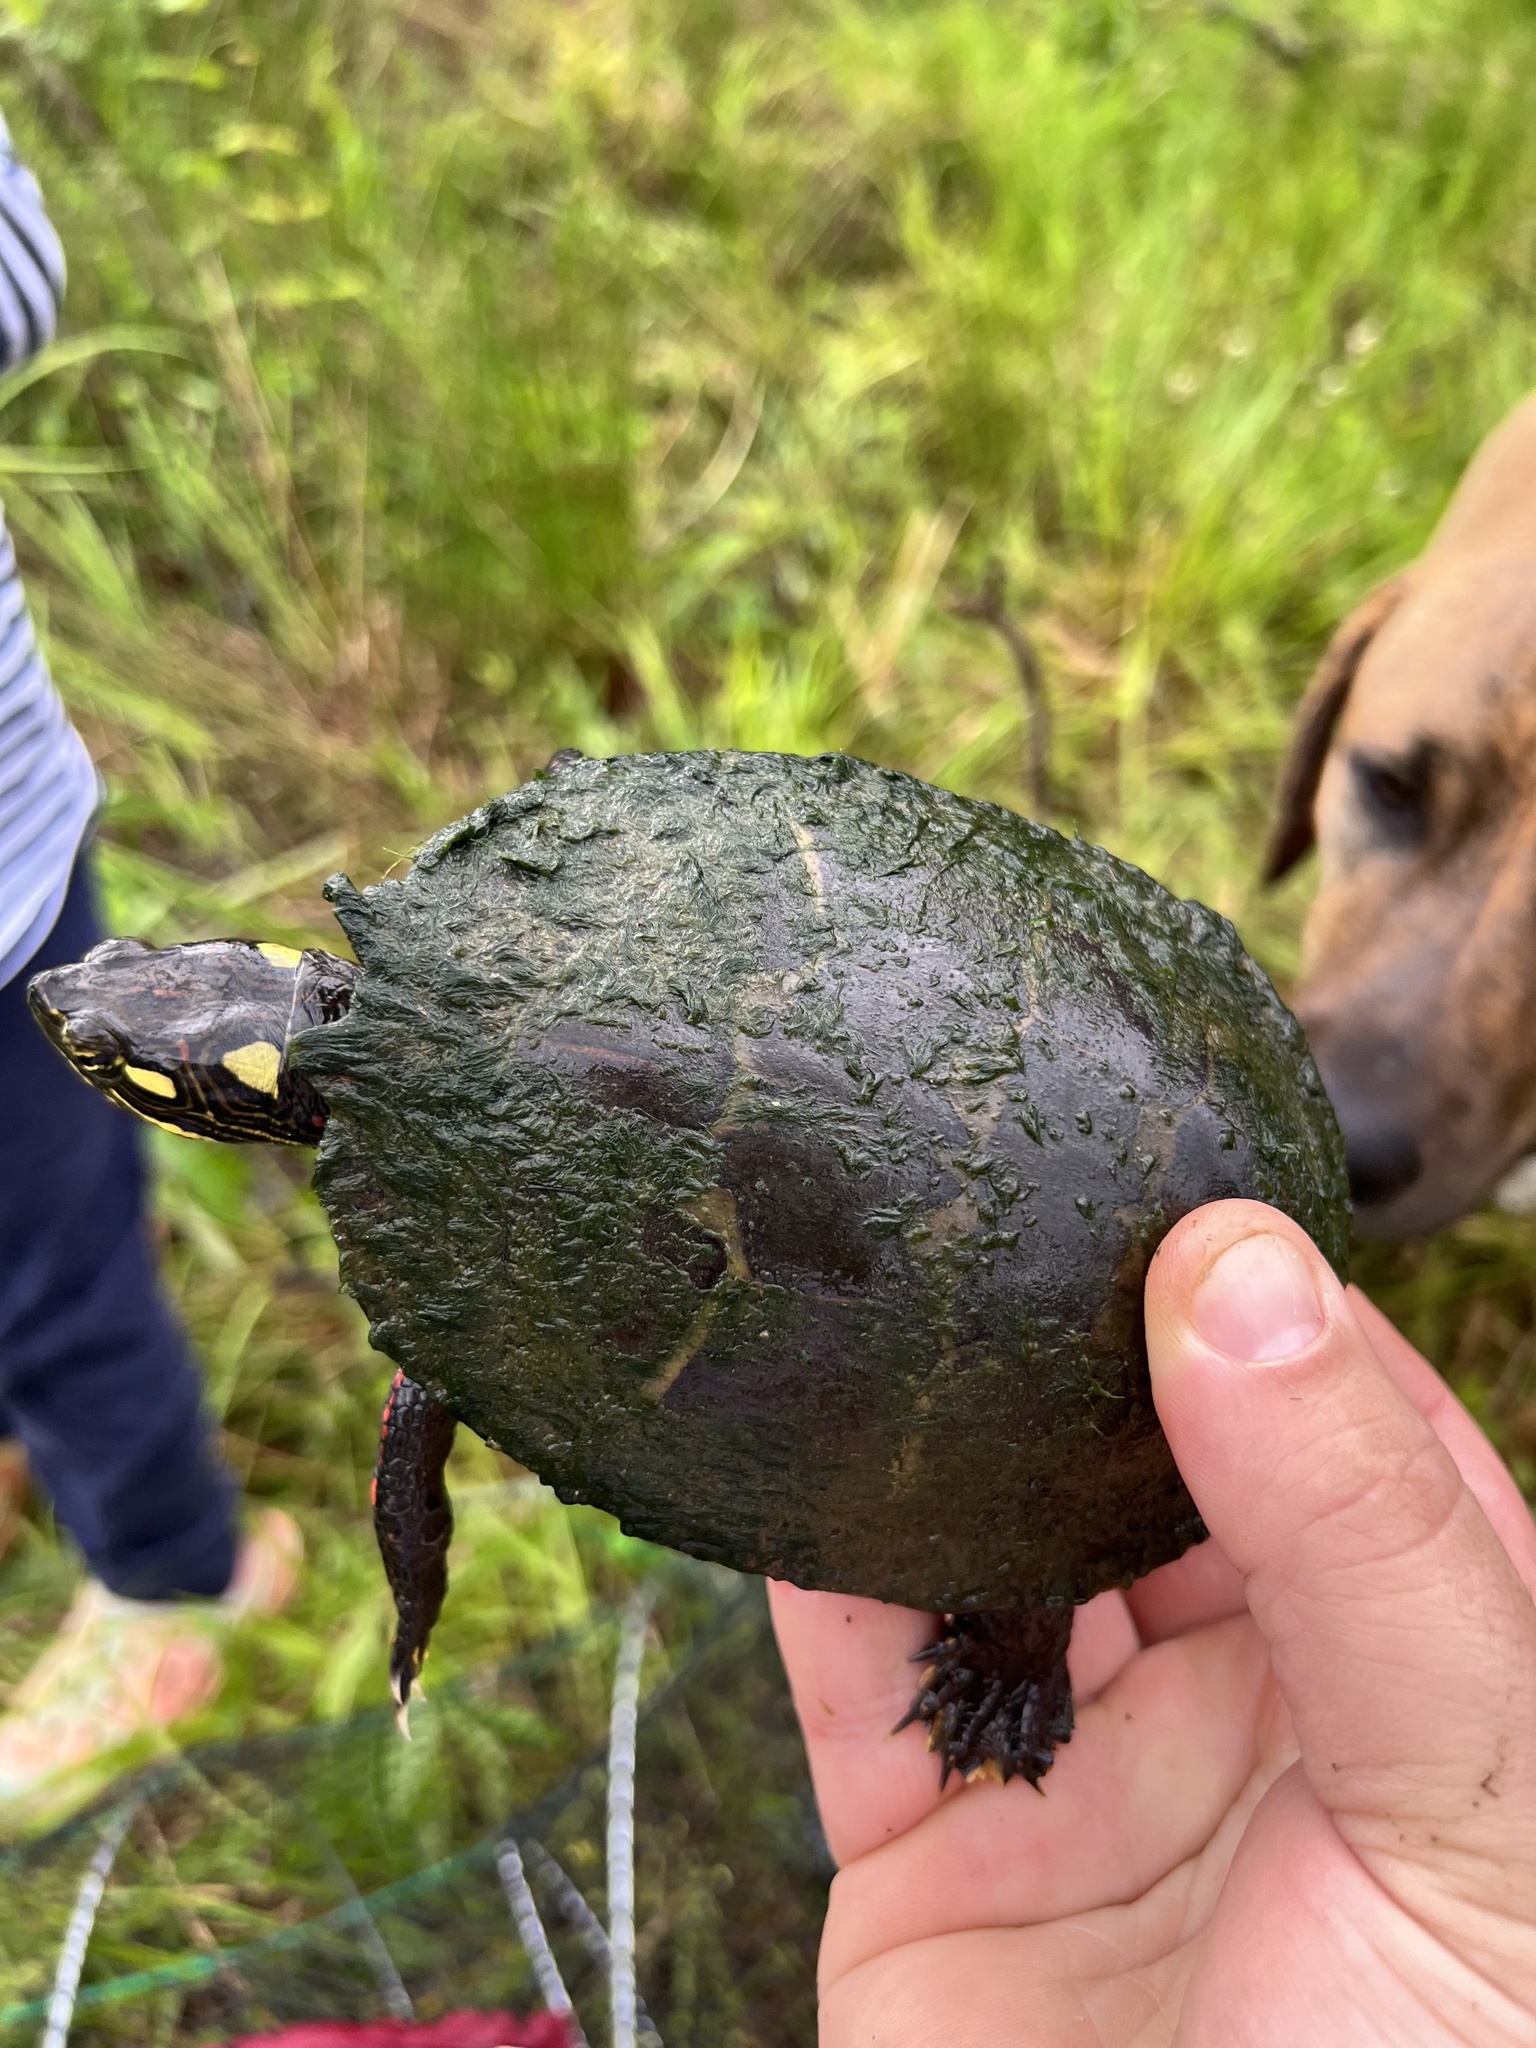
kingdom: Animalia
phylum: Chordata
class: Testudines
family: Emydidae
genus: Chrysemys
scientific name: Chrysemys picta
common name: Painted turtle
